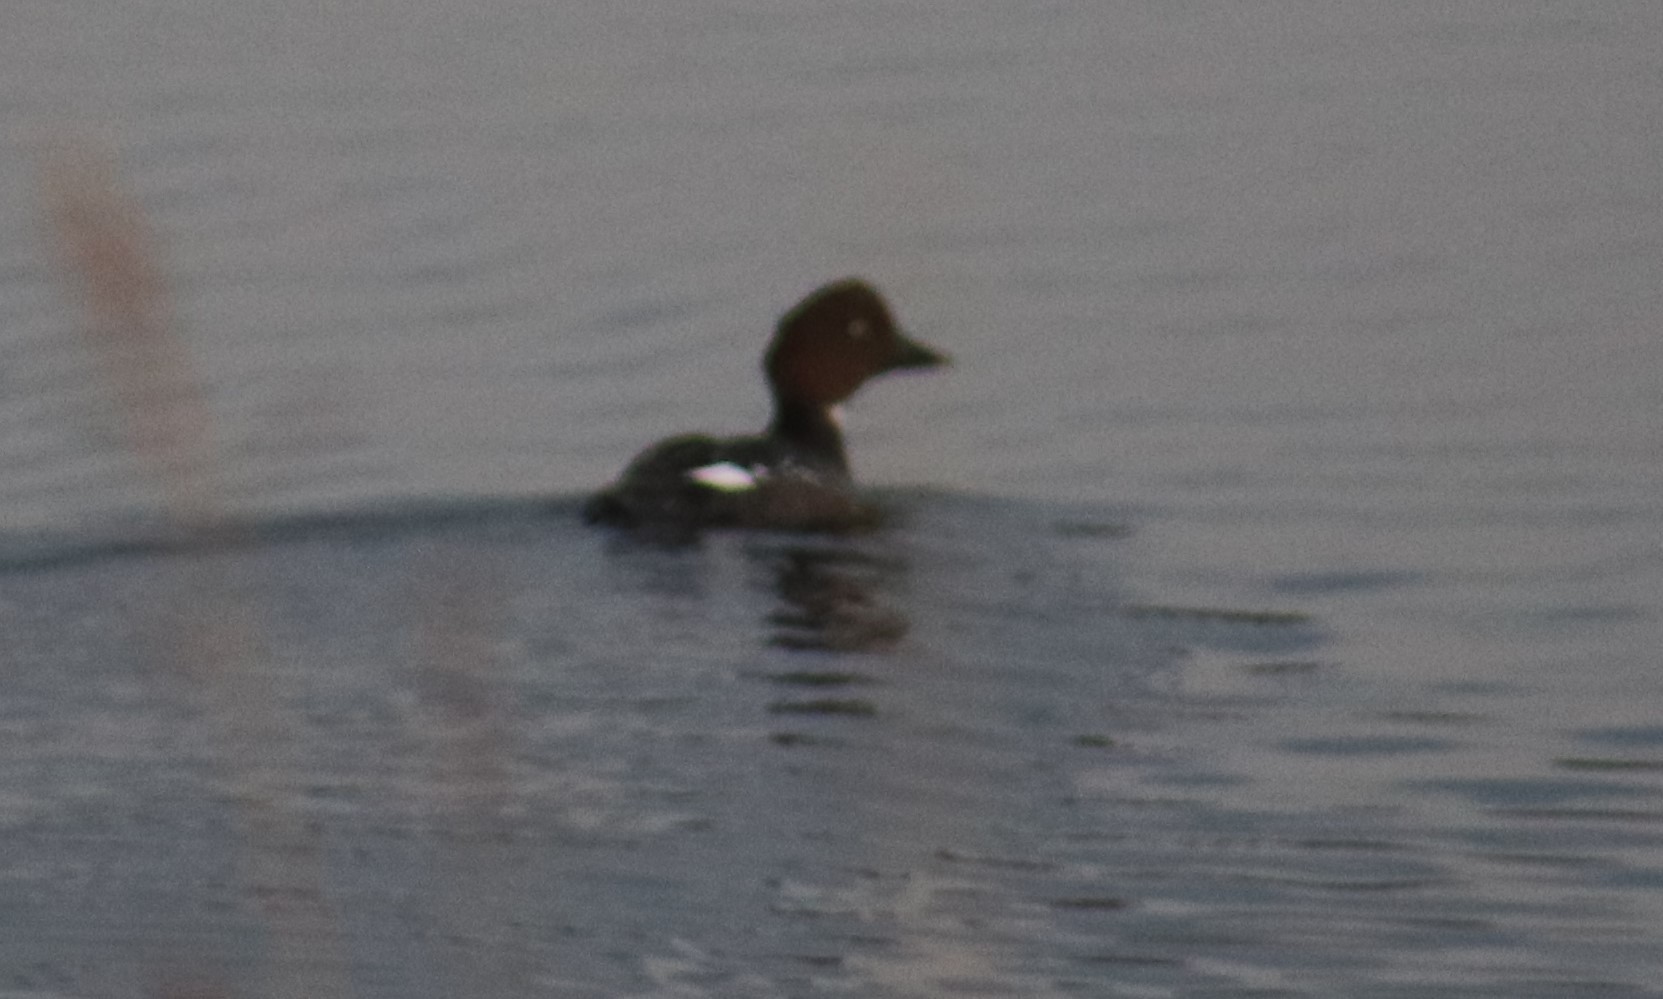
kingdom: Animalia
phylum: Chordata
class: Aves
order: Anseriformes
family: Anatidae
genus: Bucephala
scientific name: Bucephala clangula
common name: Common goldeneye
